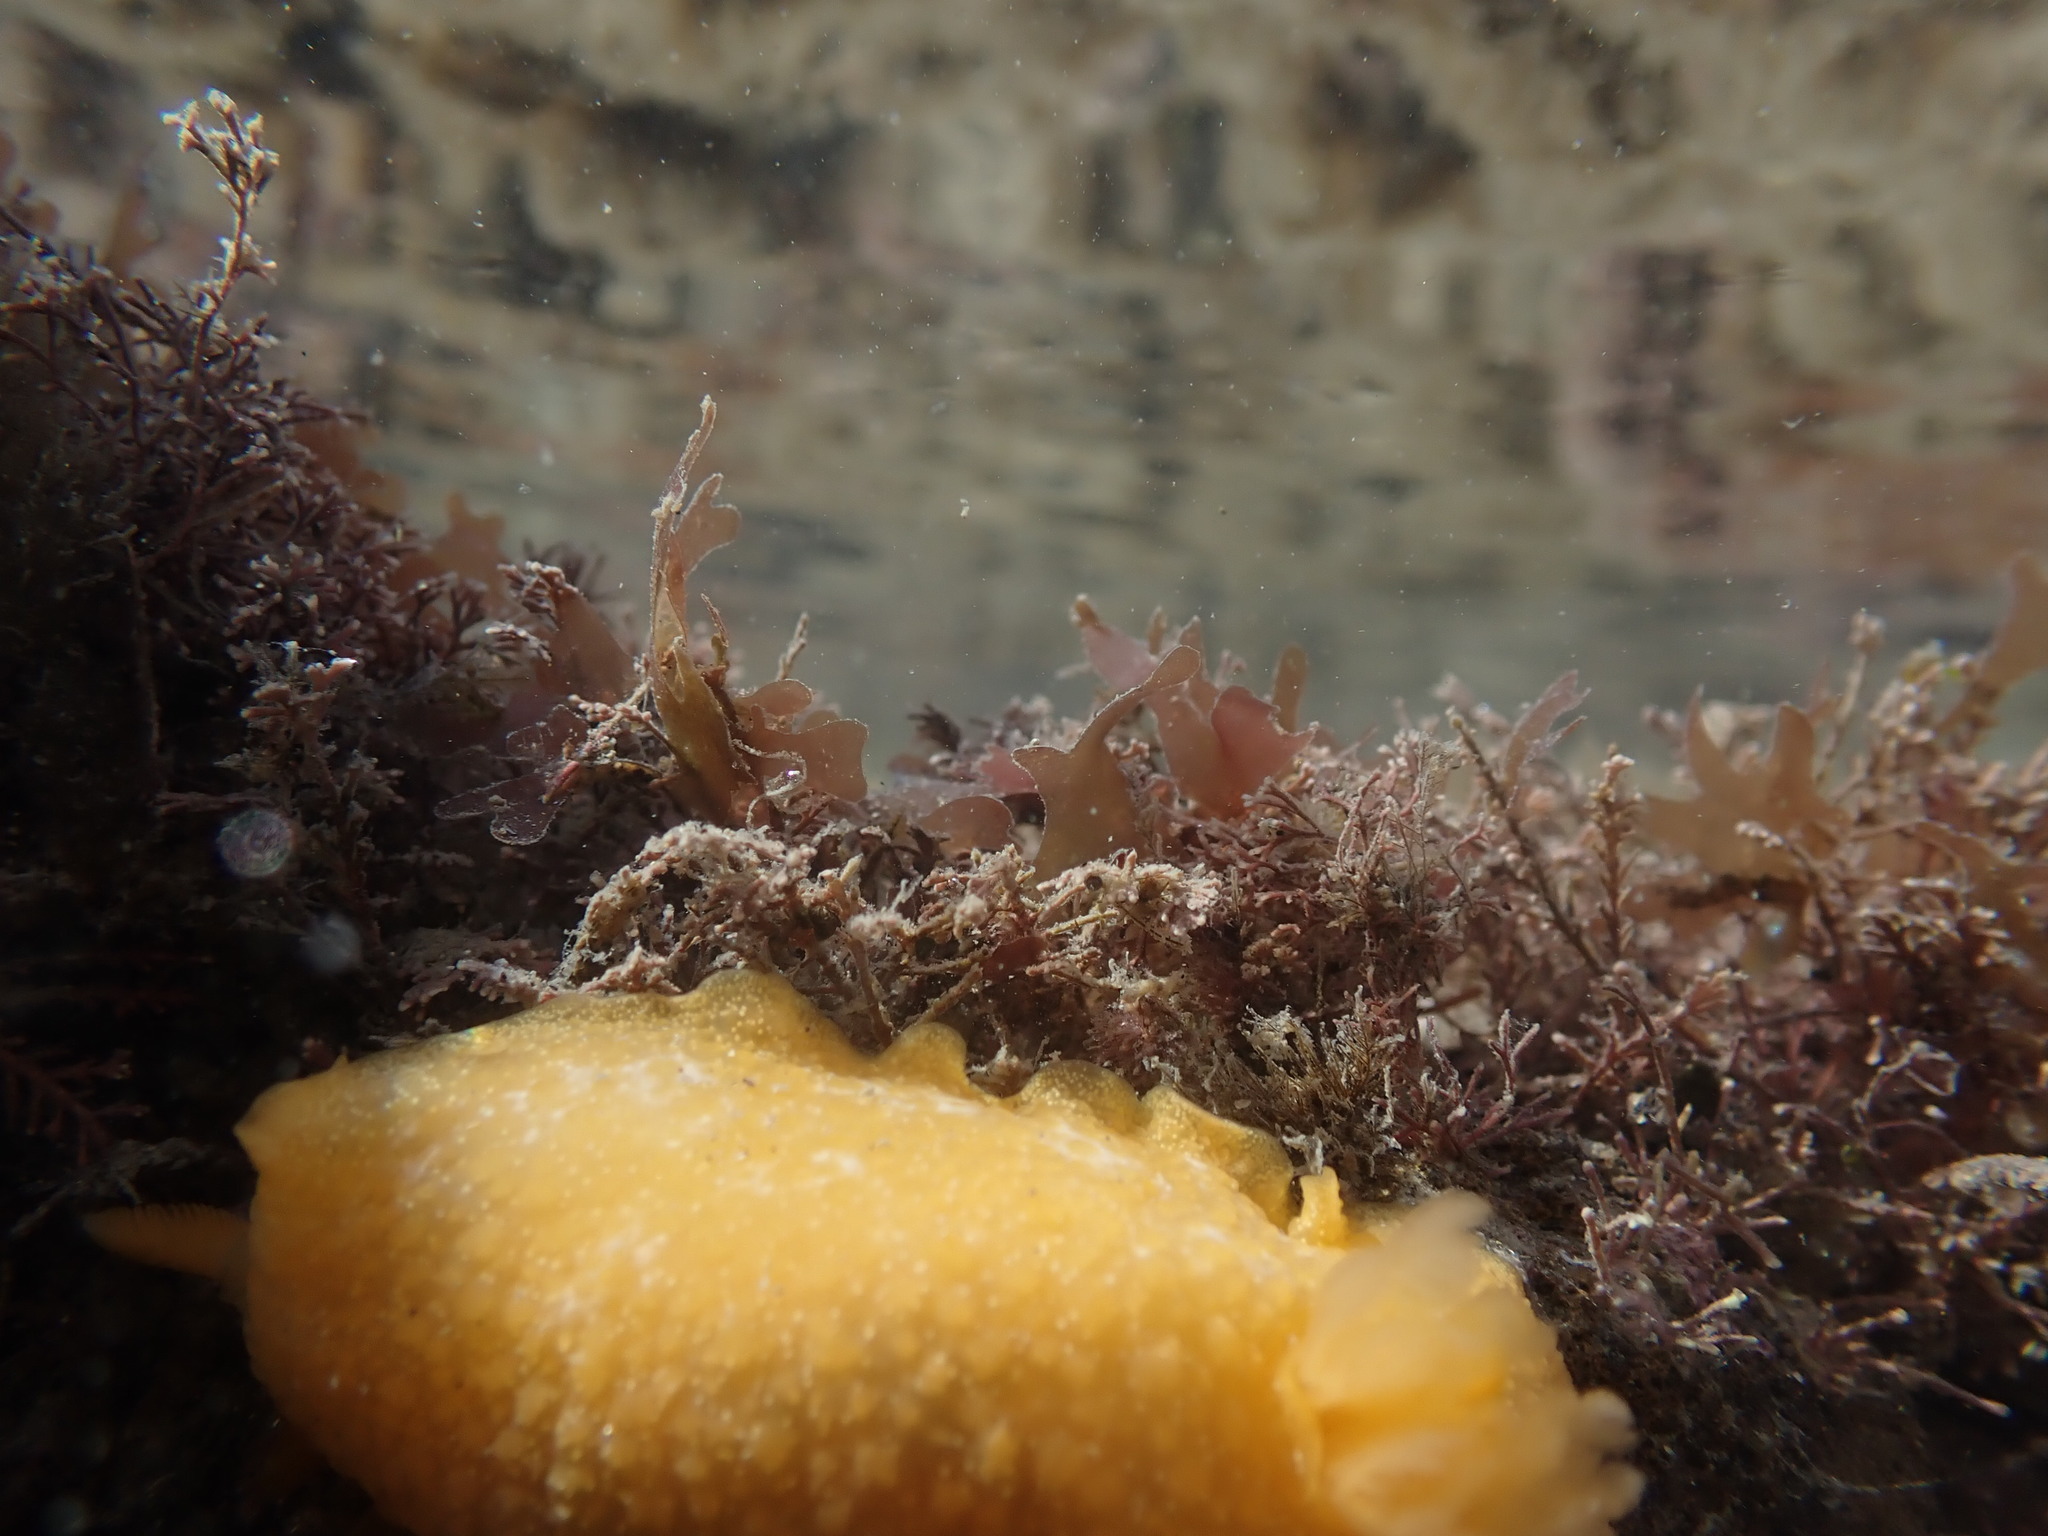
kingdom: Animalia
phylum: Mollusca
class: Gastropoda
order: Nudibranchia
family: Dendrodorididae
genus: Dendrodoris
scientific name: Dendrodoris citrina
